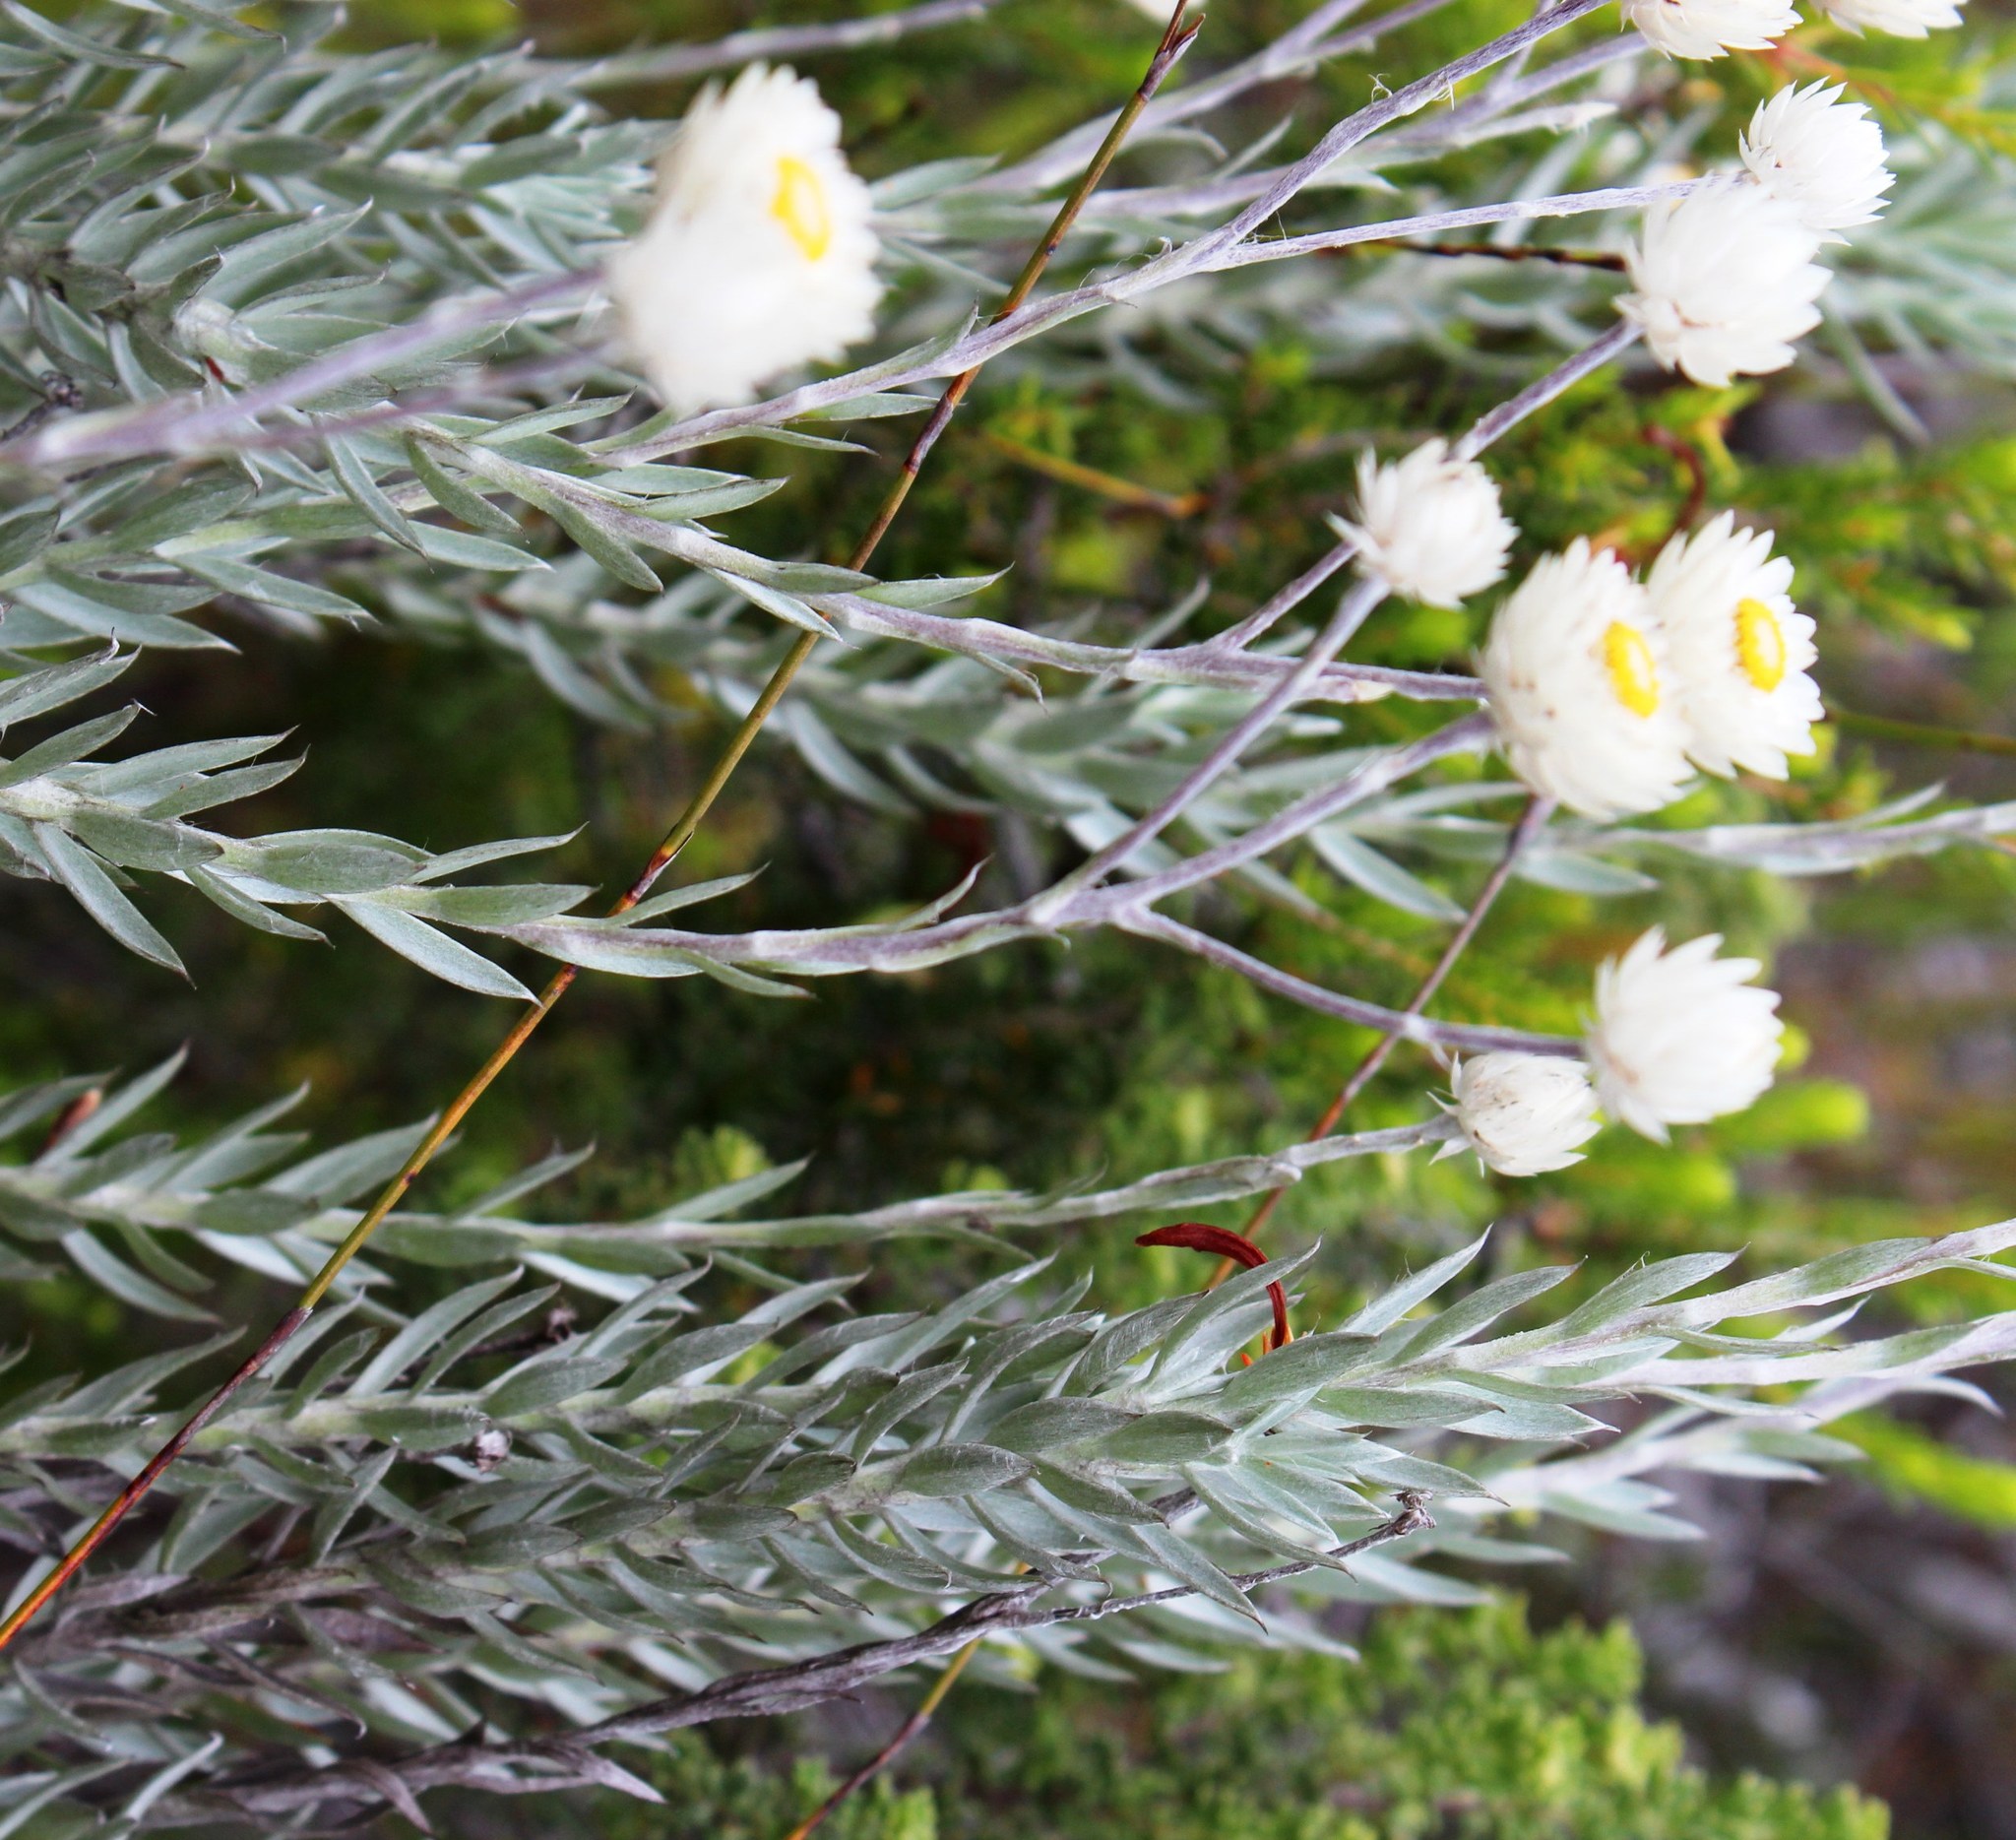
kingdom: Plantae
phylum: Tracheophyta
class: Magnoliopsida
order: Asterales
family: Asteraceae
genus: Achyranthemum
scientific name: Achyranthemum paniculatum
